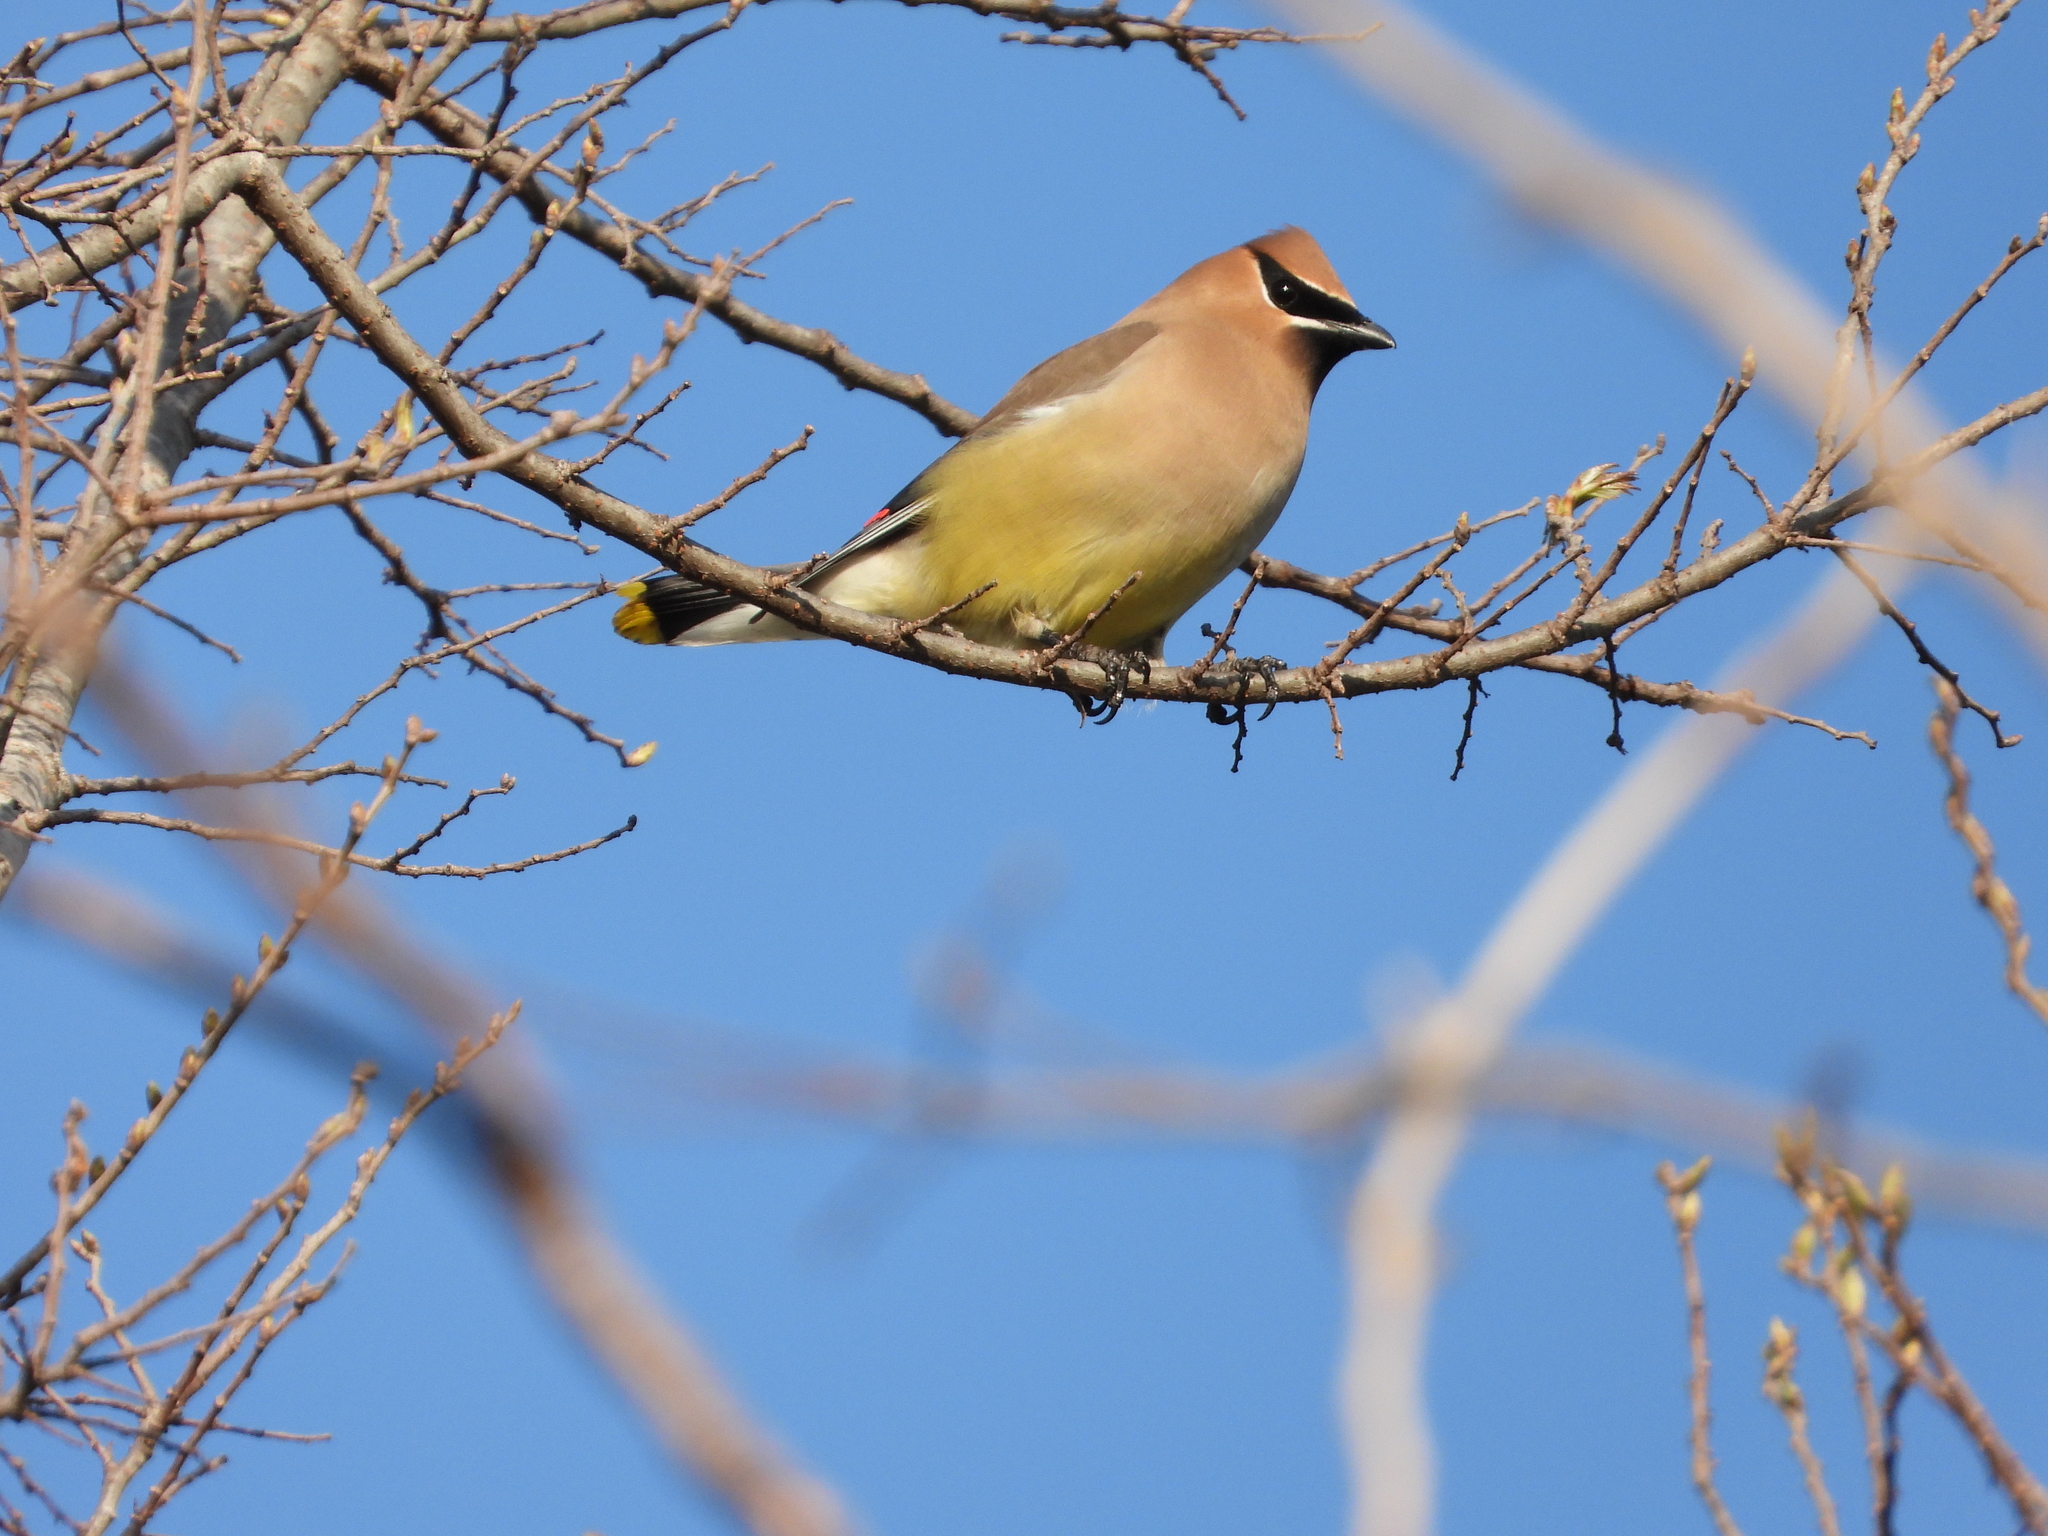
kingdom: Animalia
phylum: Chordata
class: Aves
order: Passeriformes
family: Bombycillidae
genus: Bombycilla
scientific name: Bombycilla cedrorum
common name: Cedar waxwing
